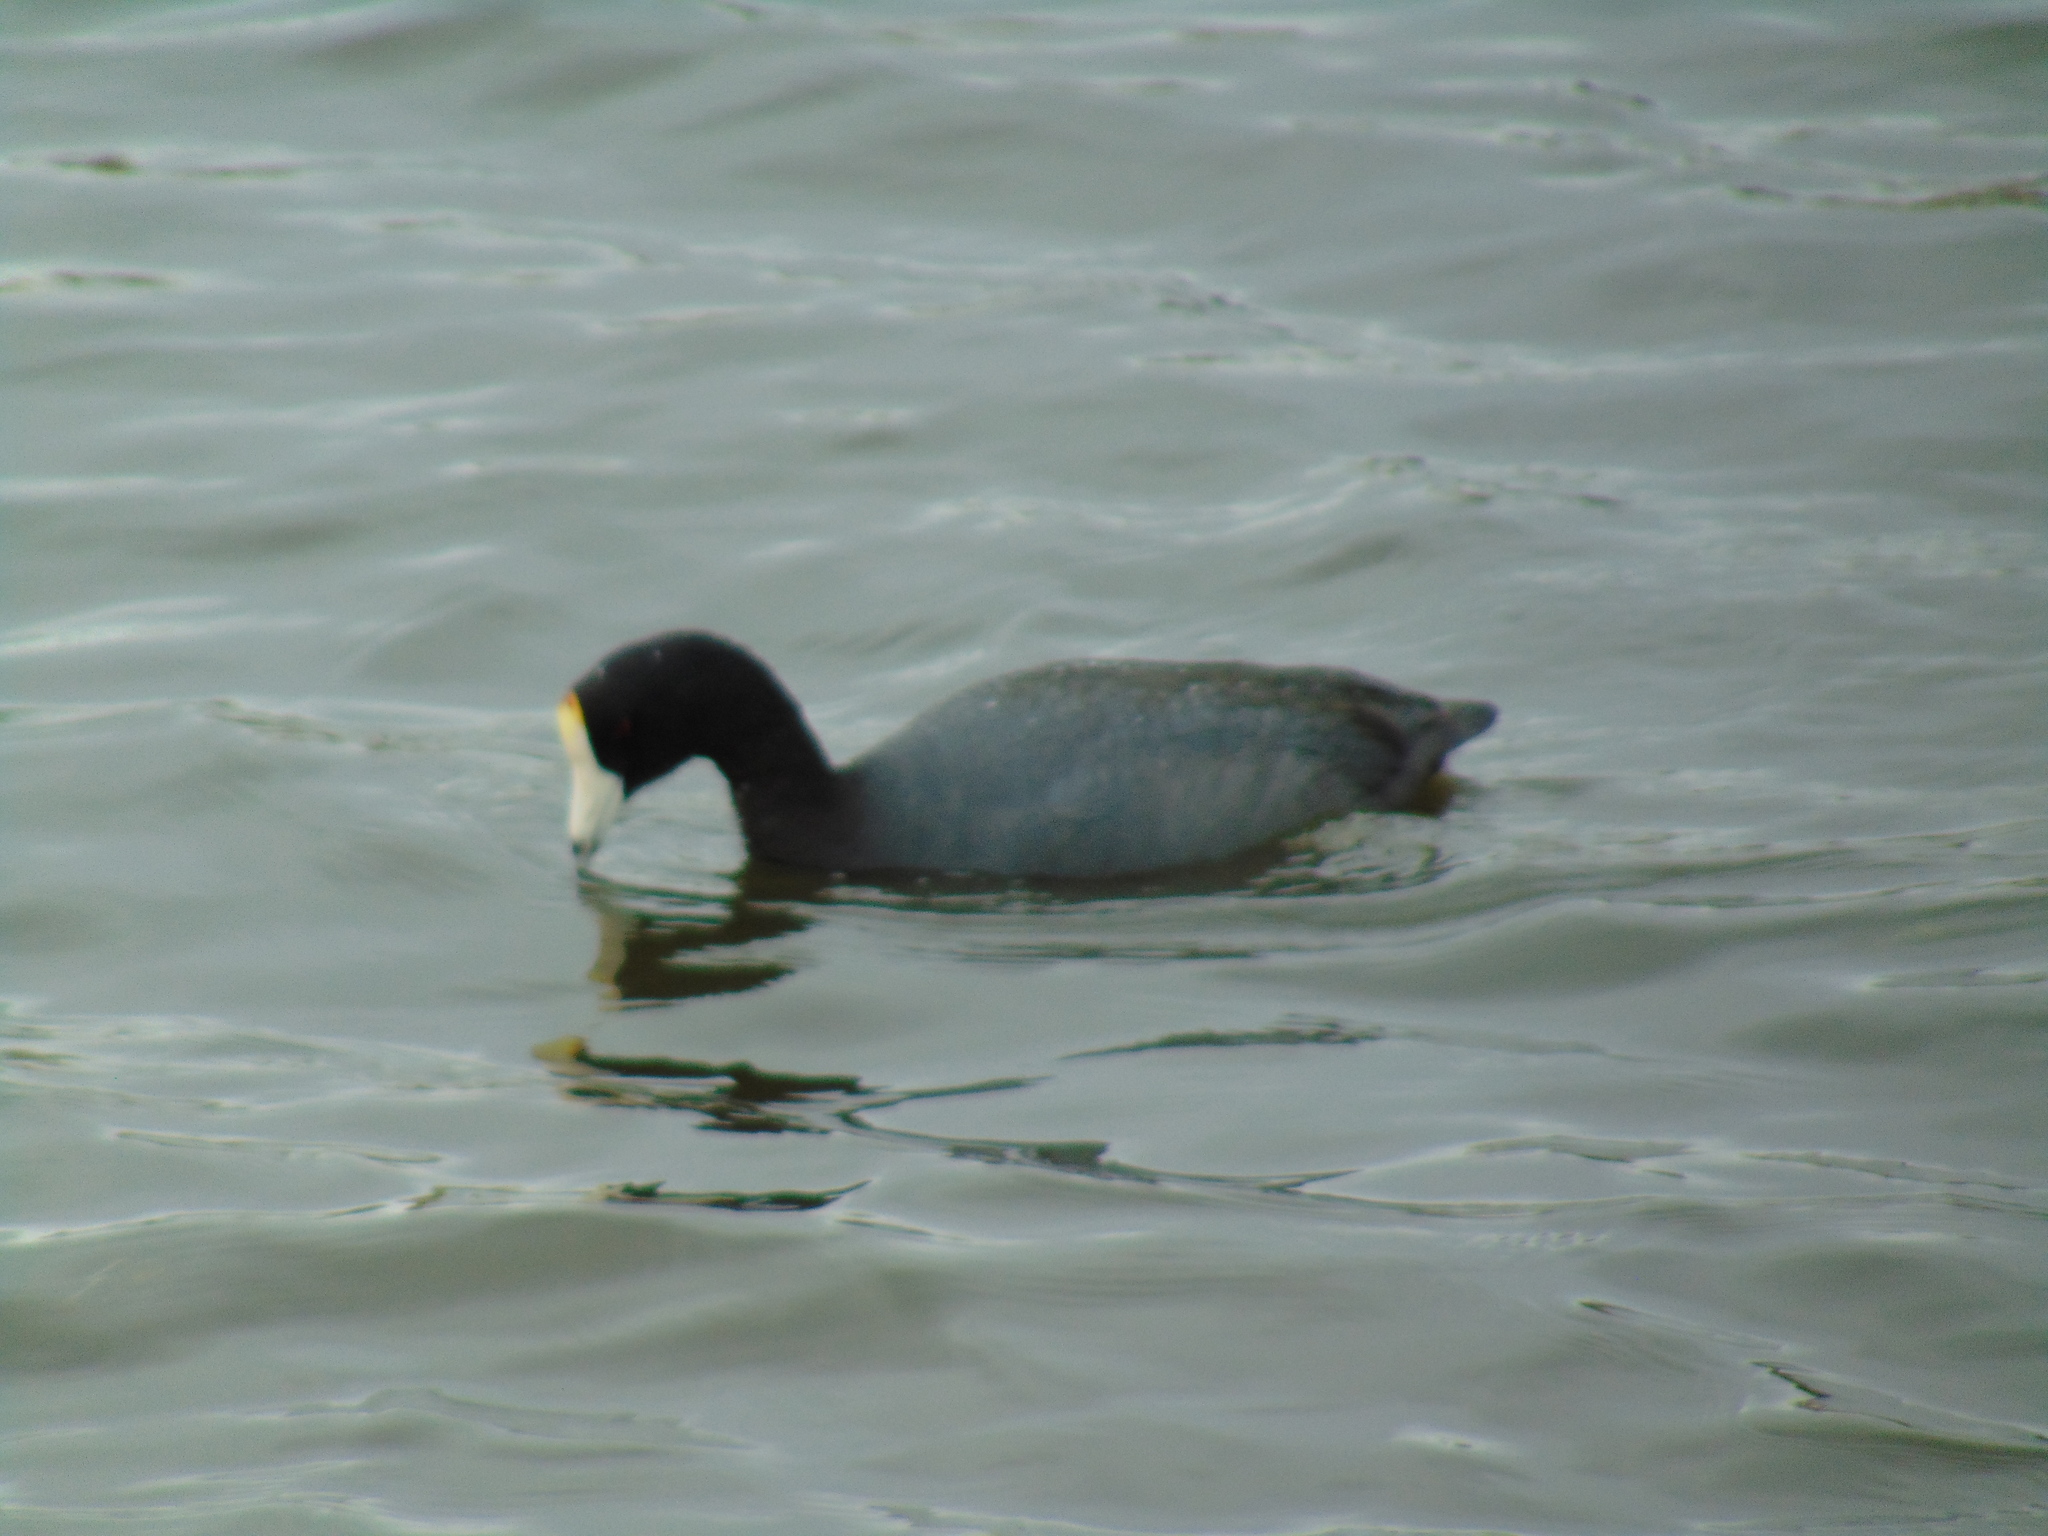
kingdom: Animalia
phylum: Chordata
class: Aves
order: Gruiformes
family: Rallidae
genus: Fulica
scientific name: Fulica americana
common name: American coot
